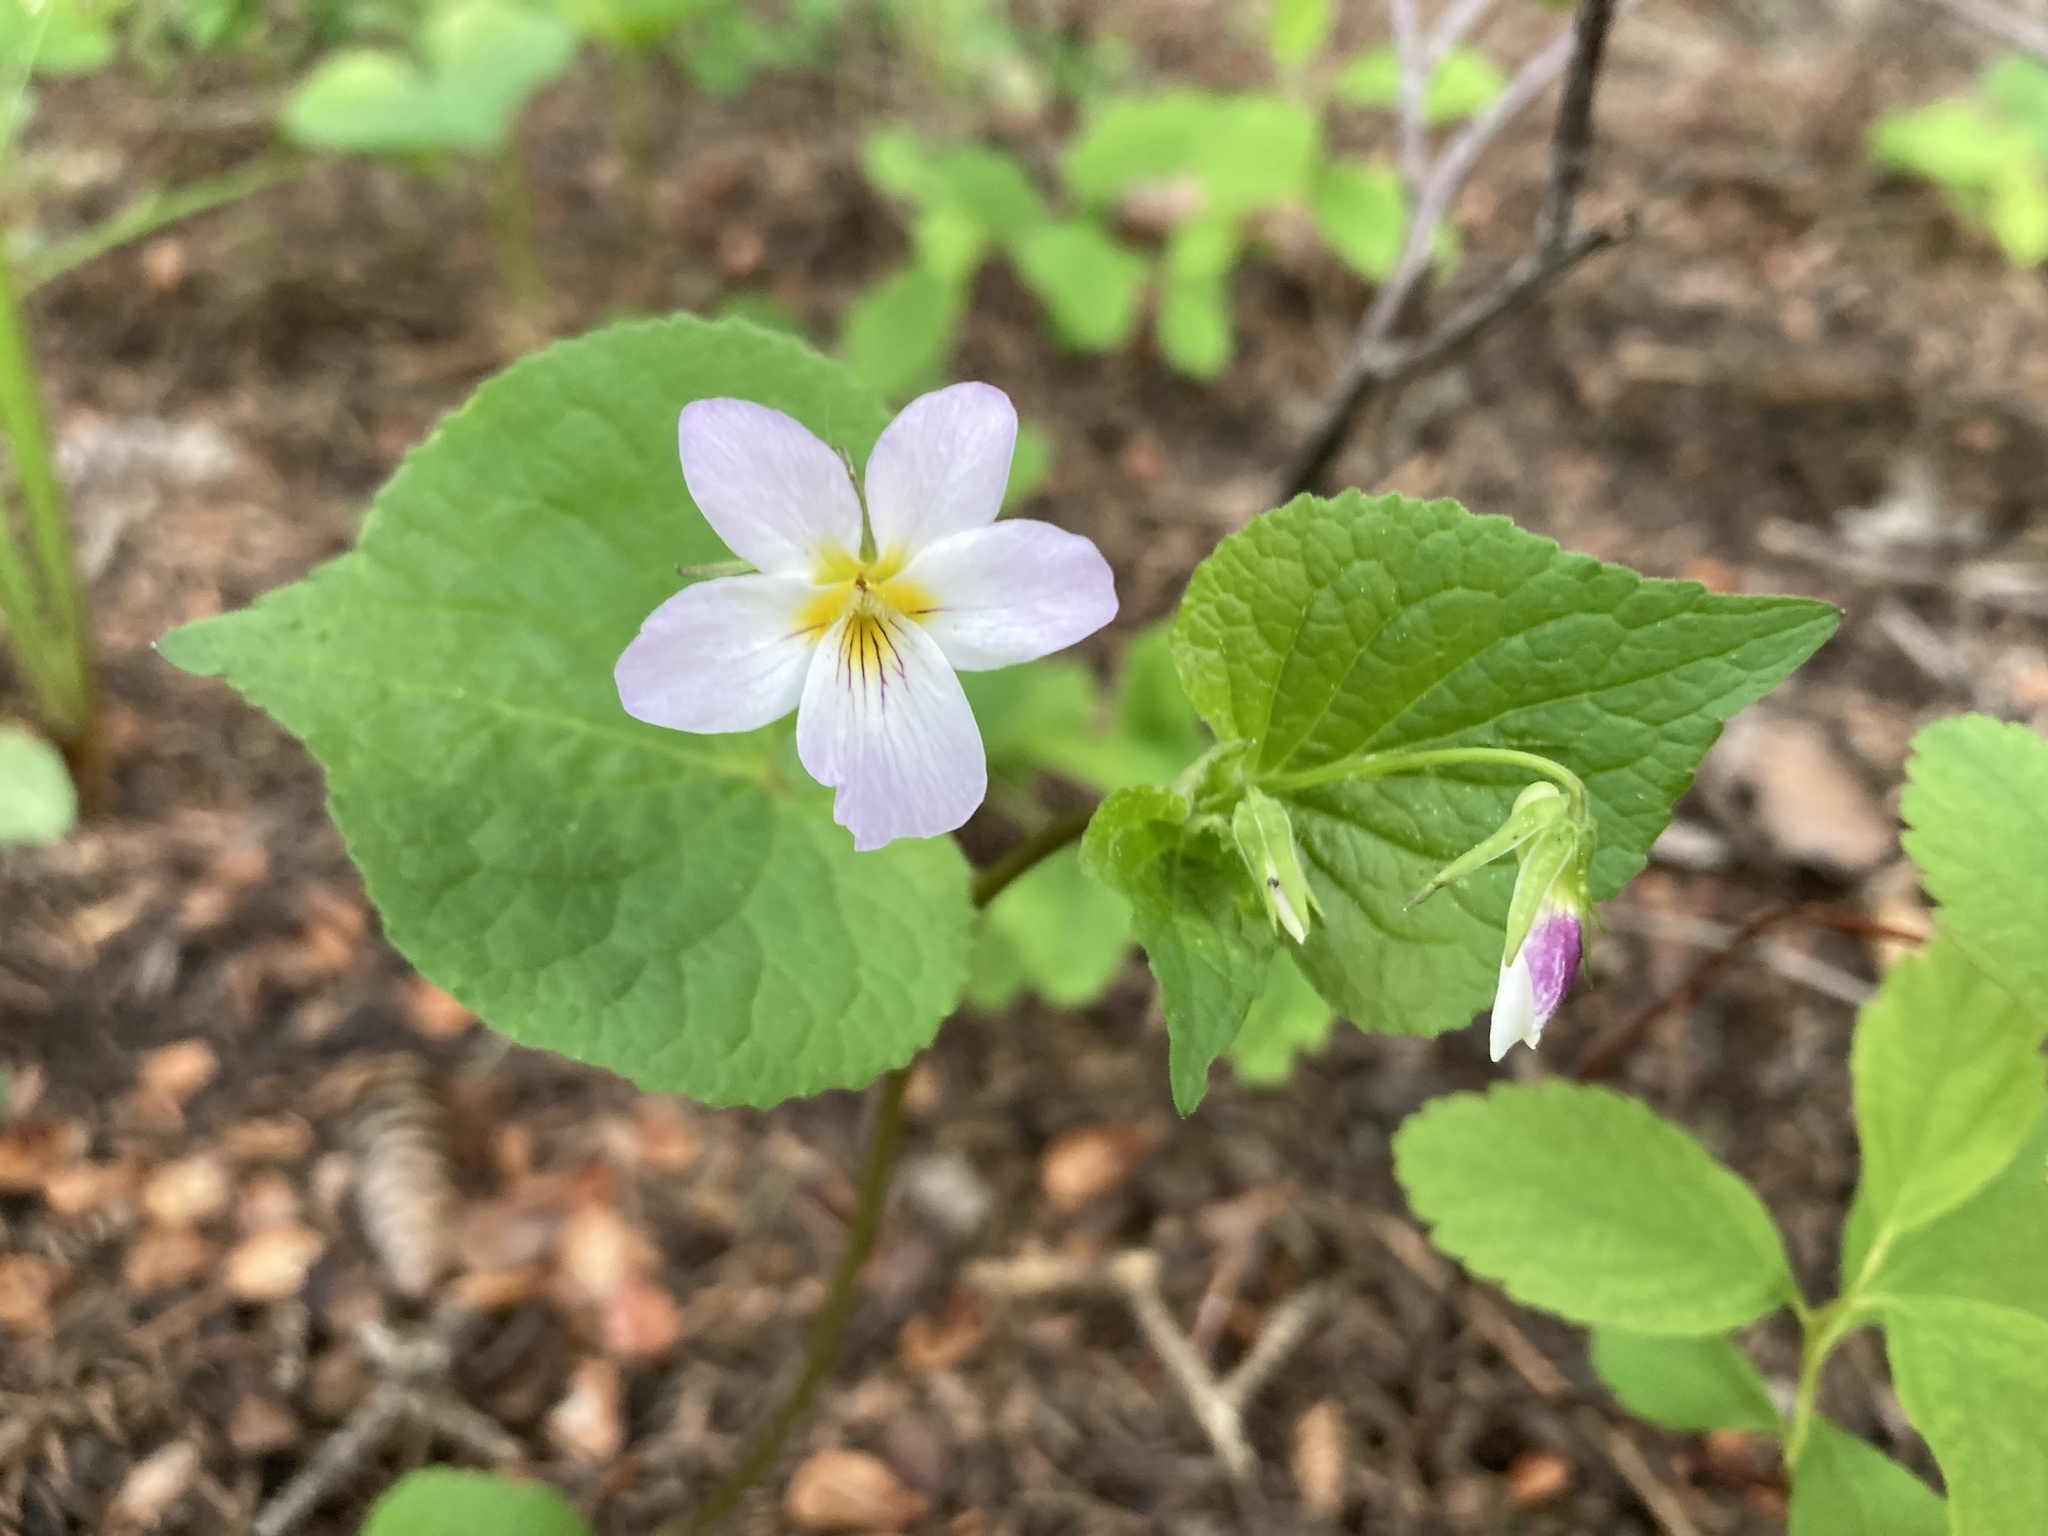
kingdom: Plantae
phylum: Tracheophyta
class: Magnoliopsida
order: Malpighiales
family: Violaceae
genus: Viola
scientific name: Viola canadensis
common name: Canada violet
